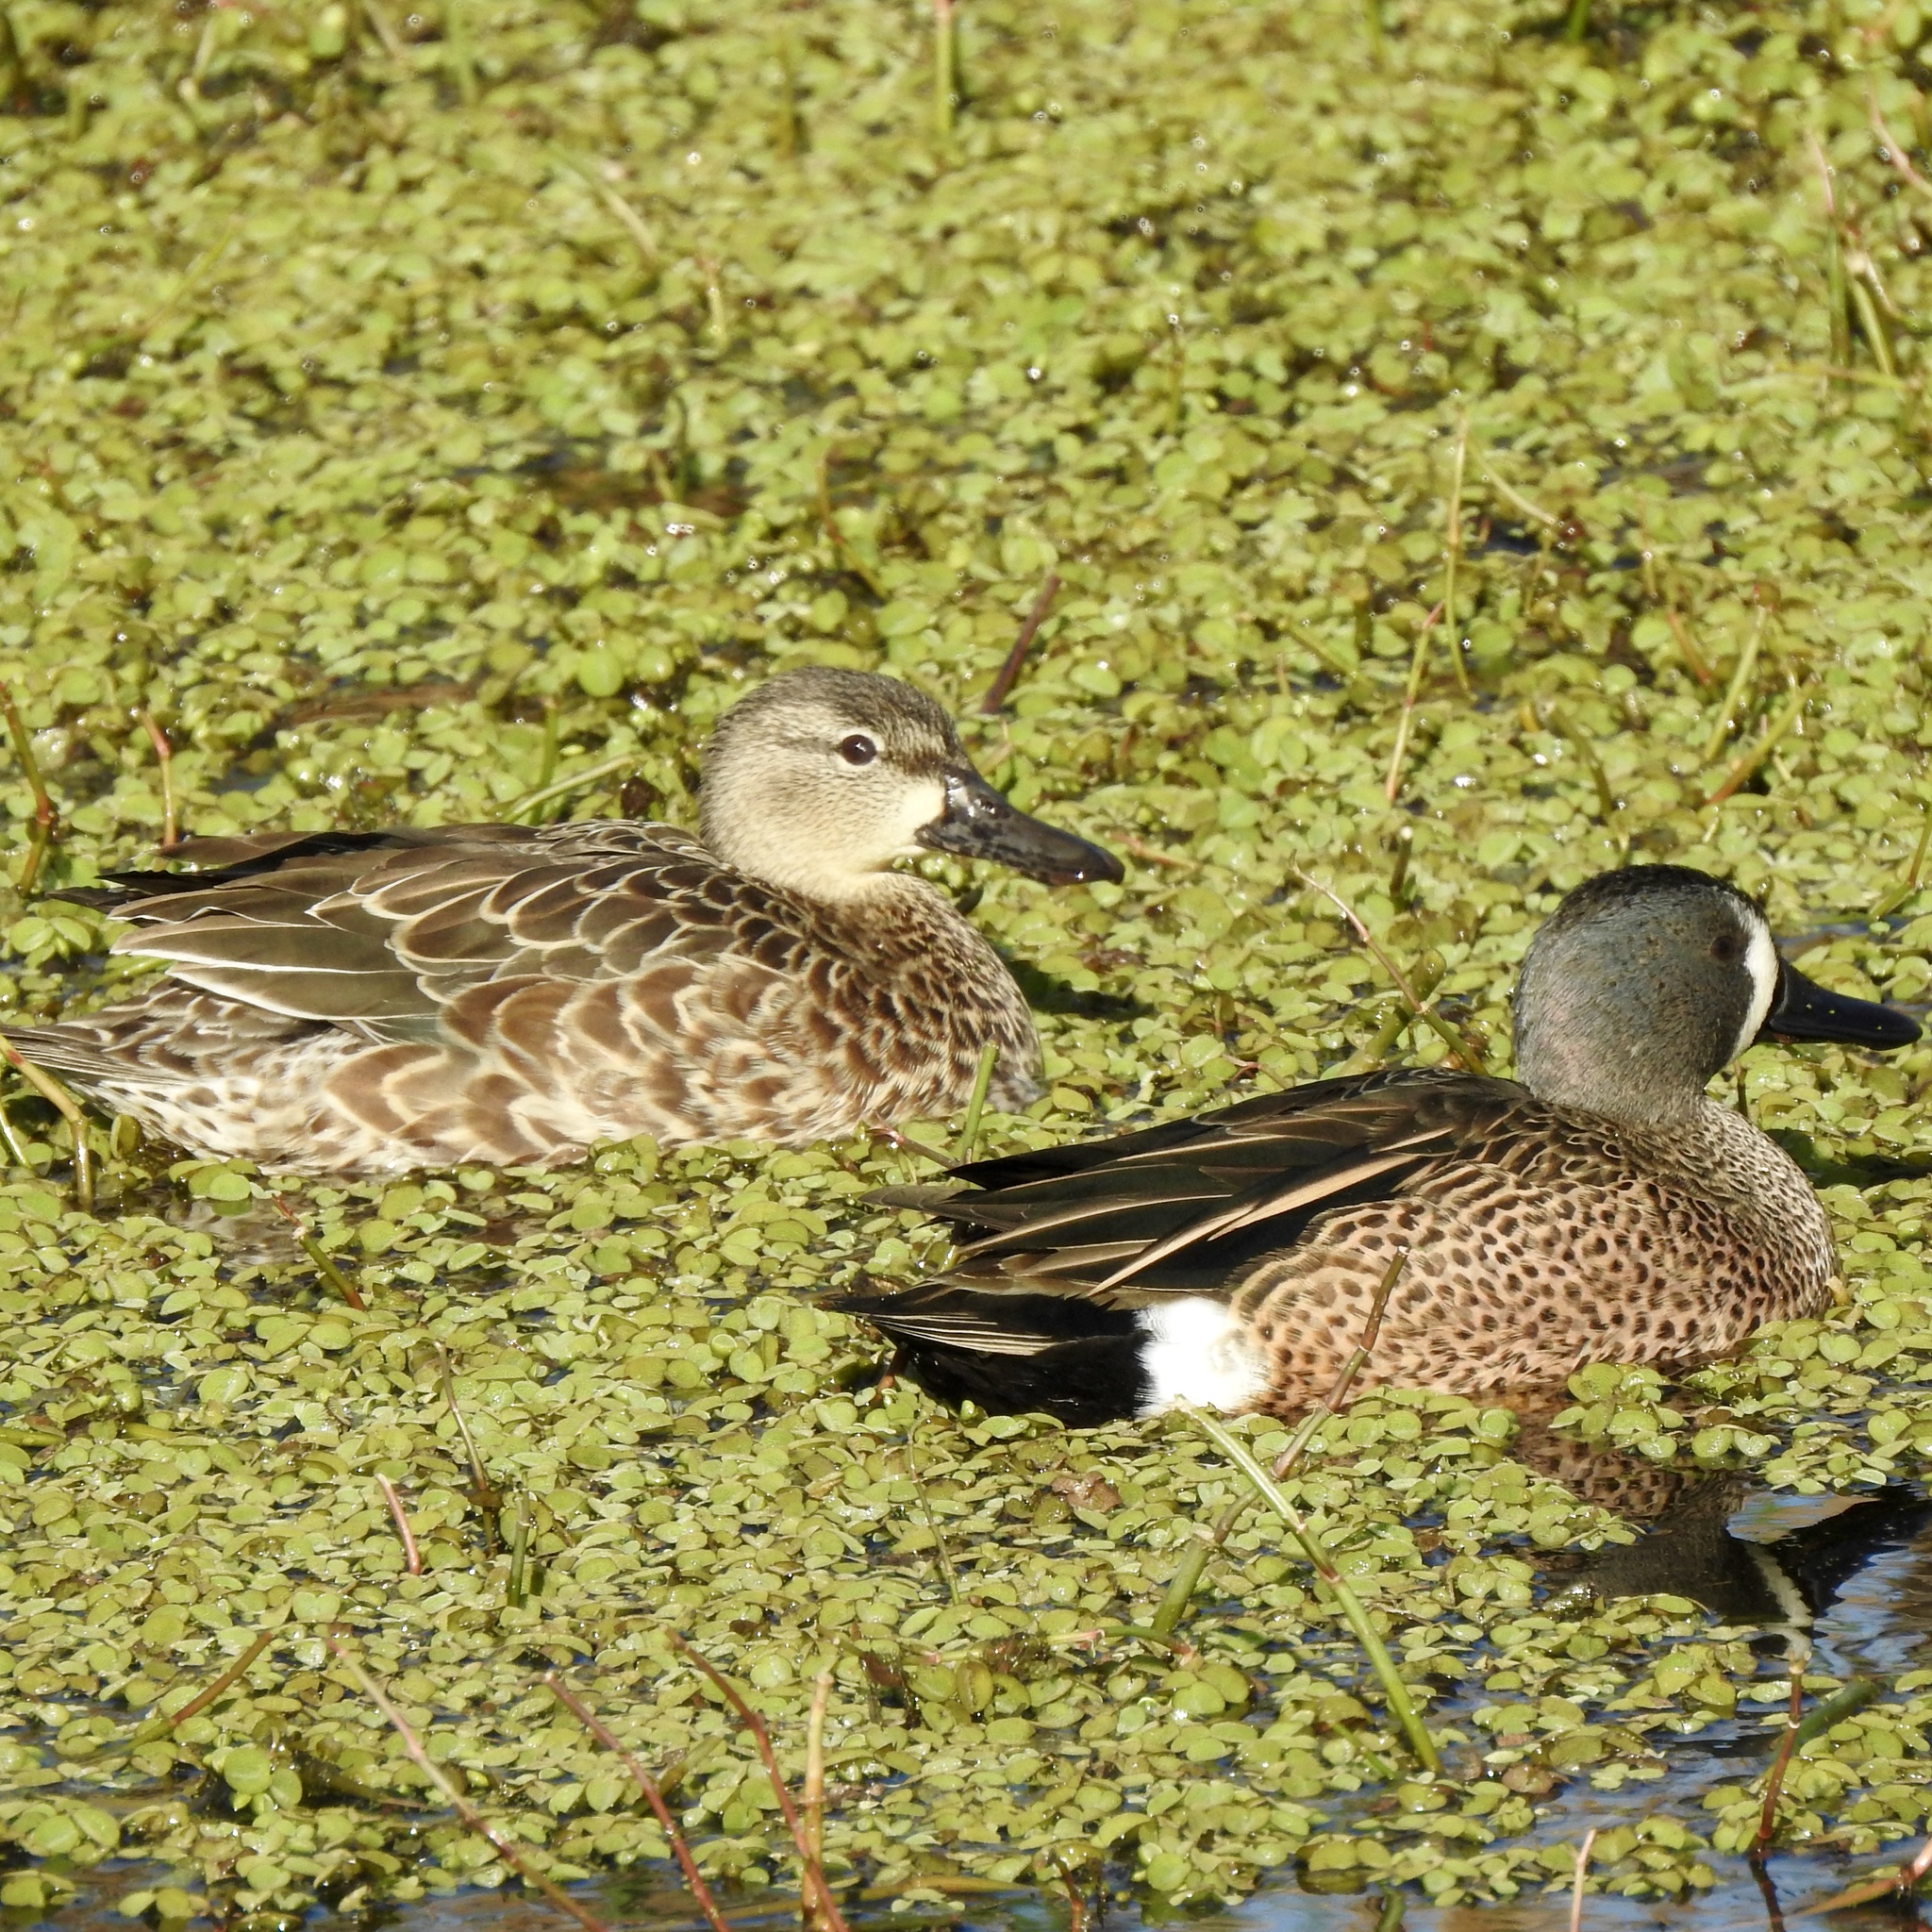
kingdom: Animalia
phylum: Chordata
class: Aves
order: Anseriformes
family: Anatidae
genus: Spatula
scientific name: Spatula discors
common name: Blue-winged teal
